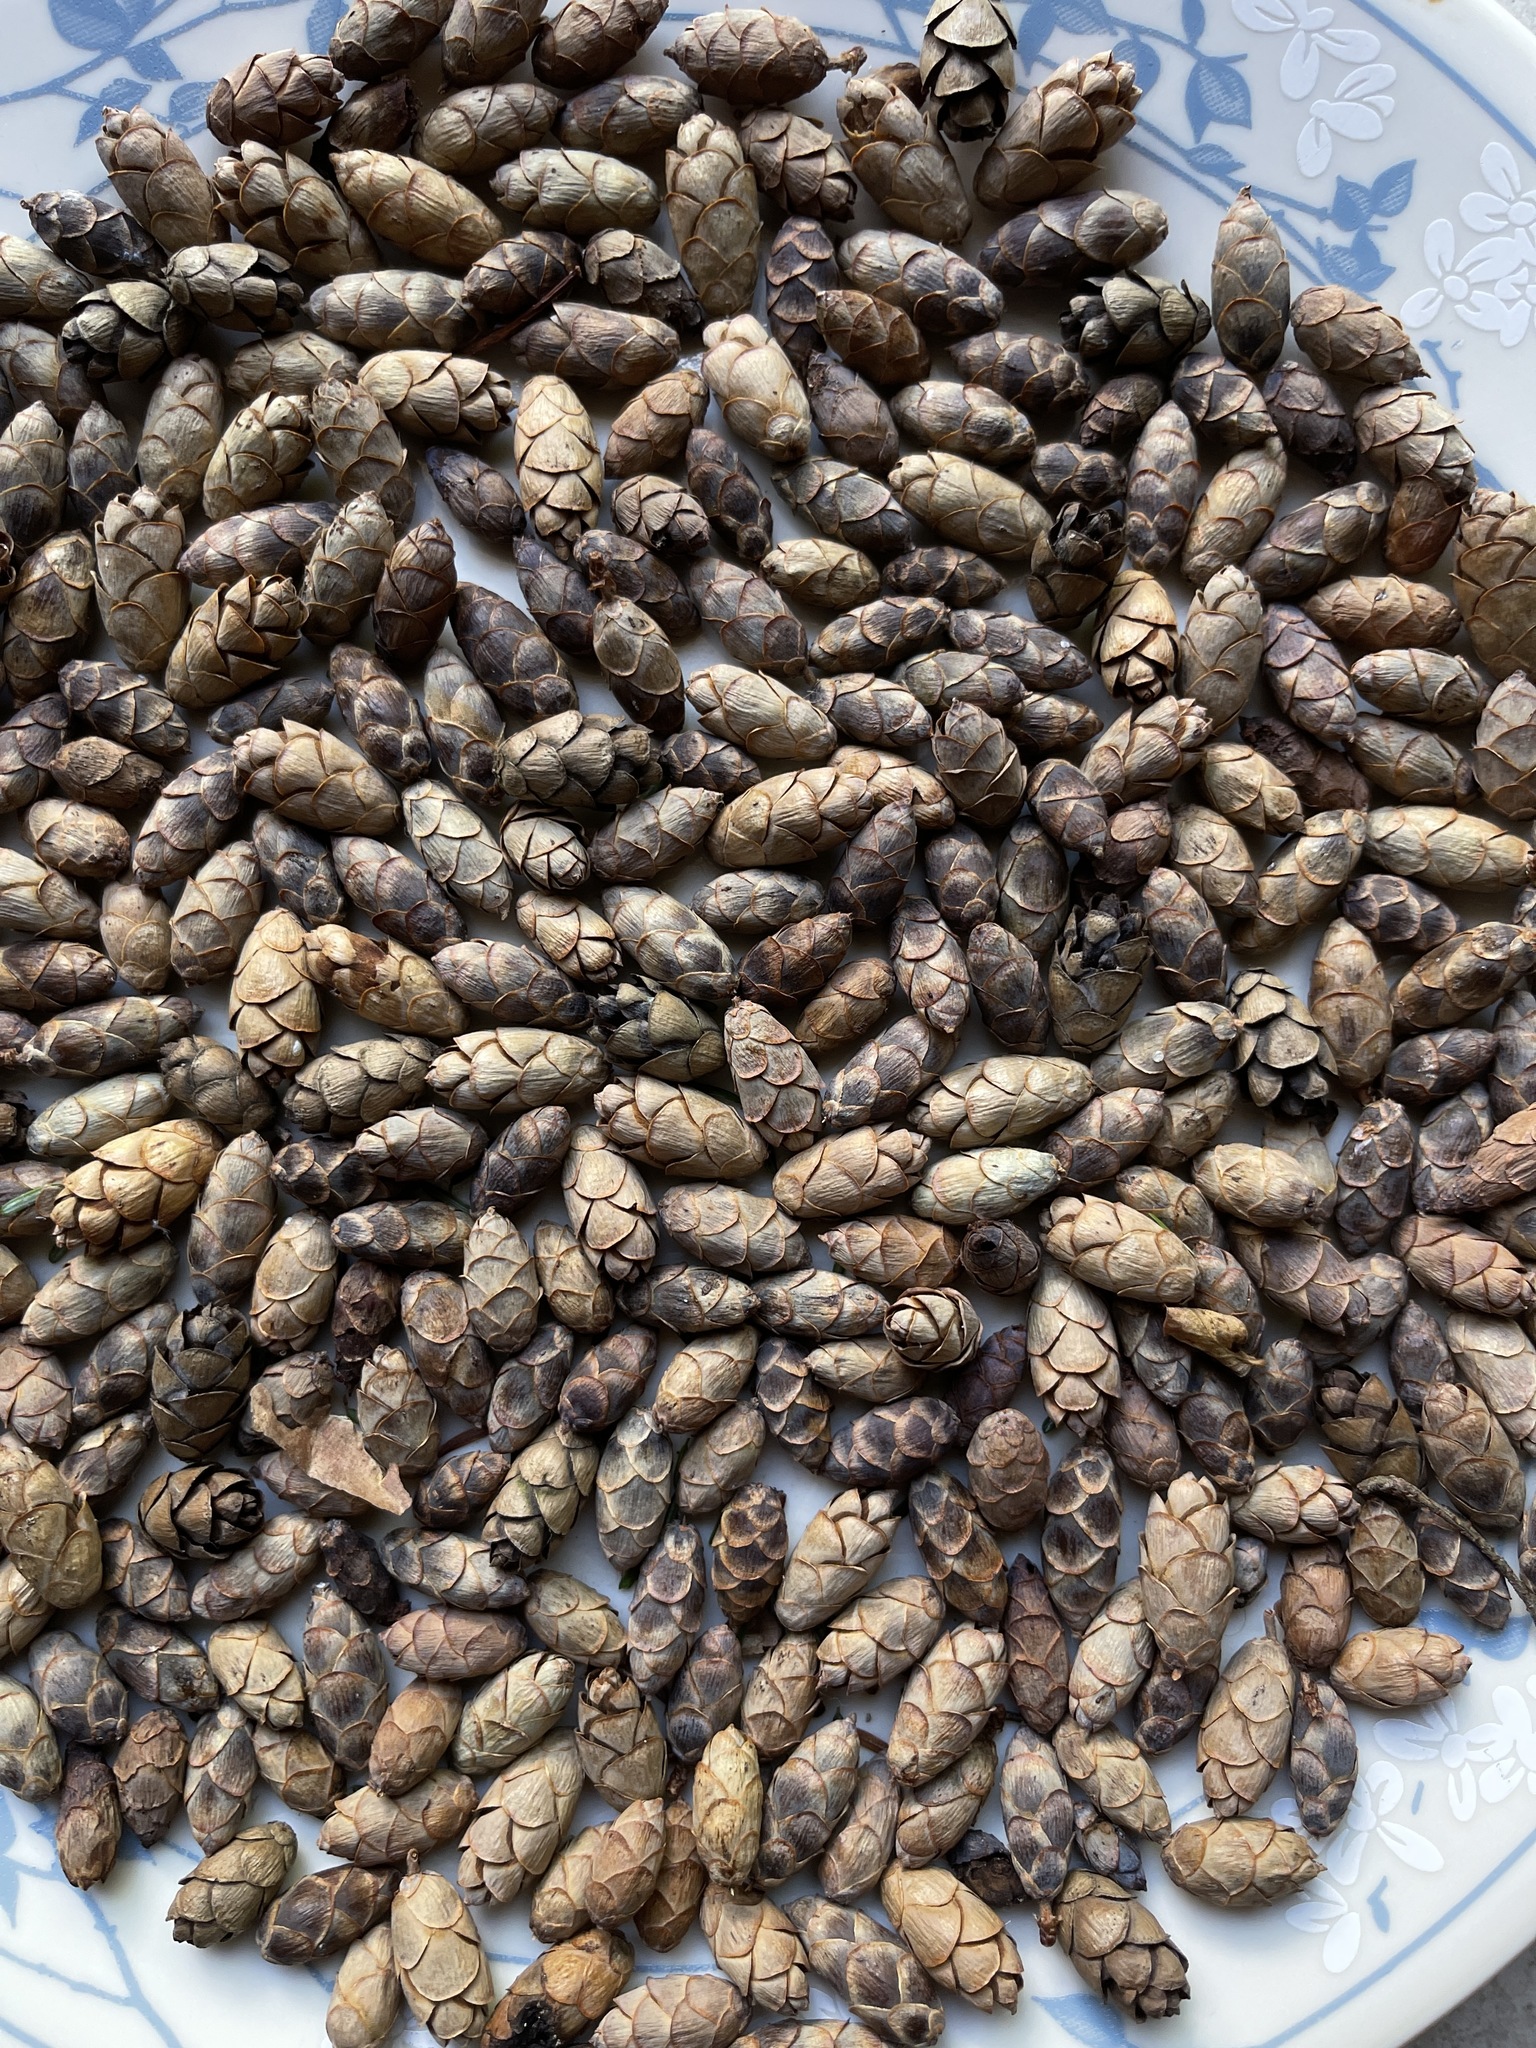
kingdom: Plantae
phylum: Tracheophyta
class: Pinopsida
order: Pinales
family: Pinaceae
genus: Tsuga
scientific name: Tsuga canadensis
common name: Eastern hemlock
